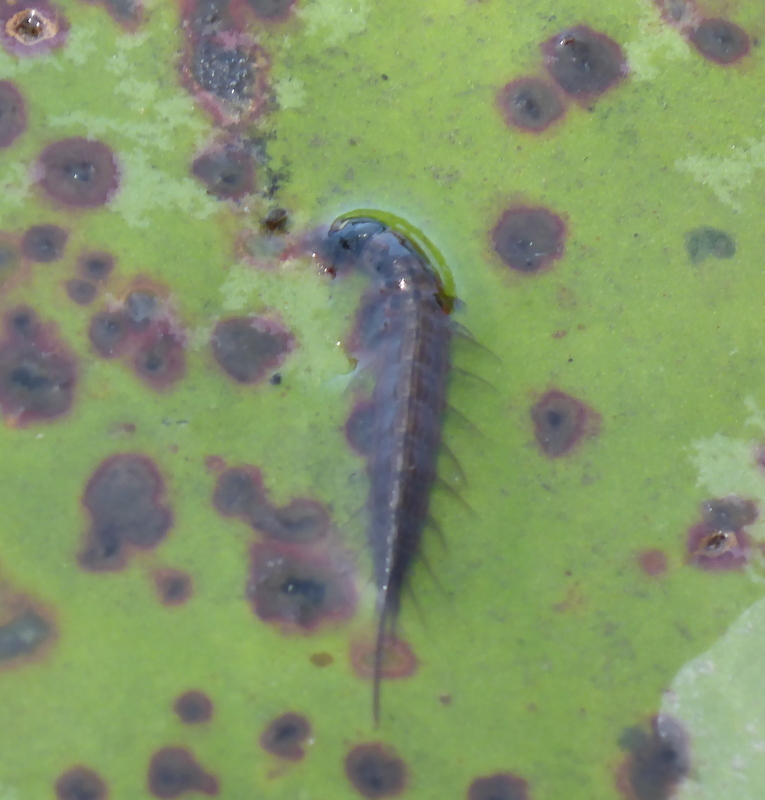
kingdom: Animalia
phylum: Arthropoda
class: Insecta
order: Megaloptera
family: Corydalidae
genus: Chauliodes
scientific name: Chauliodes rastricornis
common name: Spring fishfly
